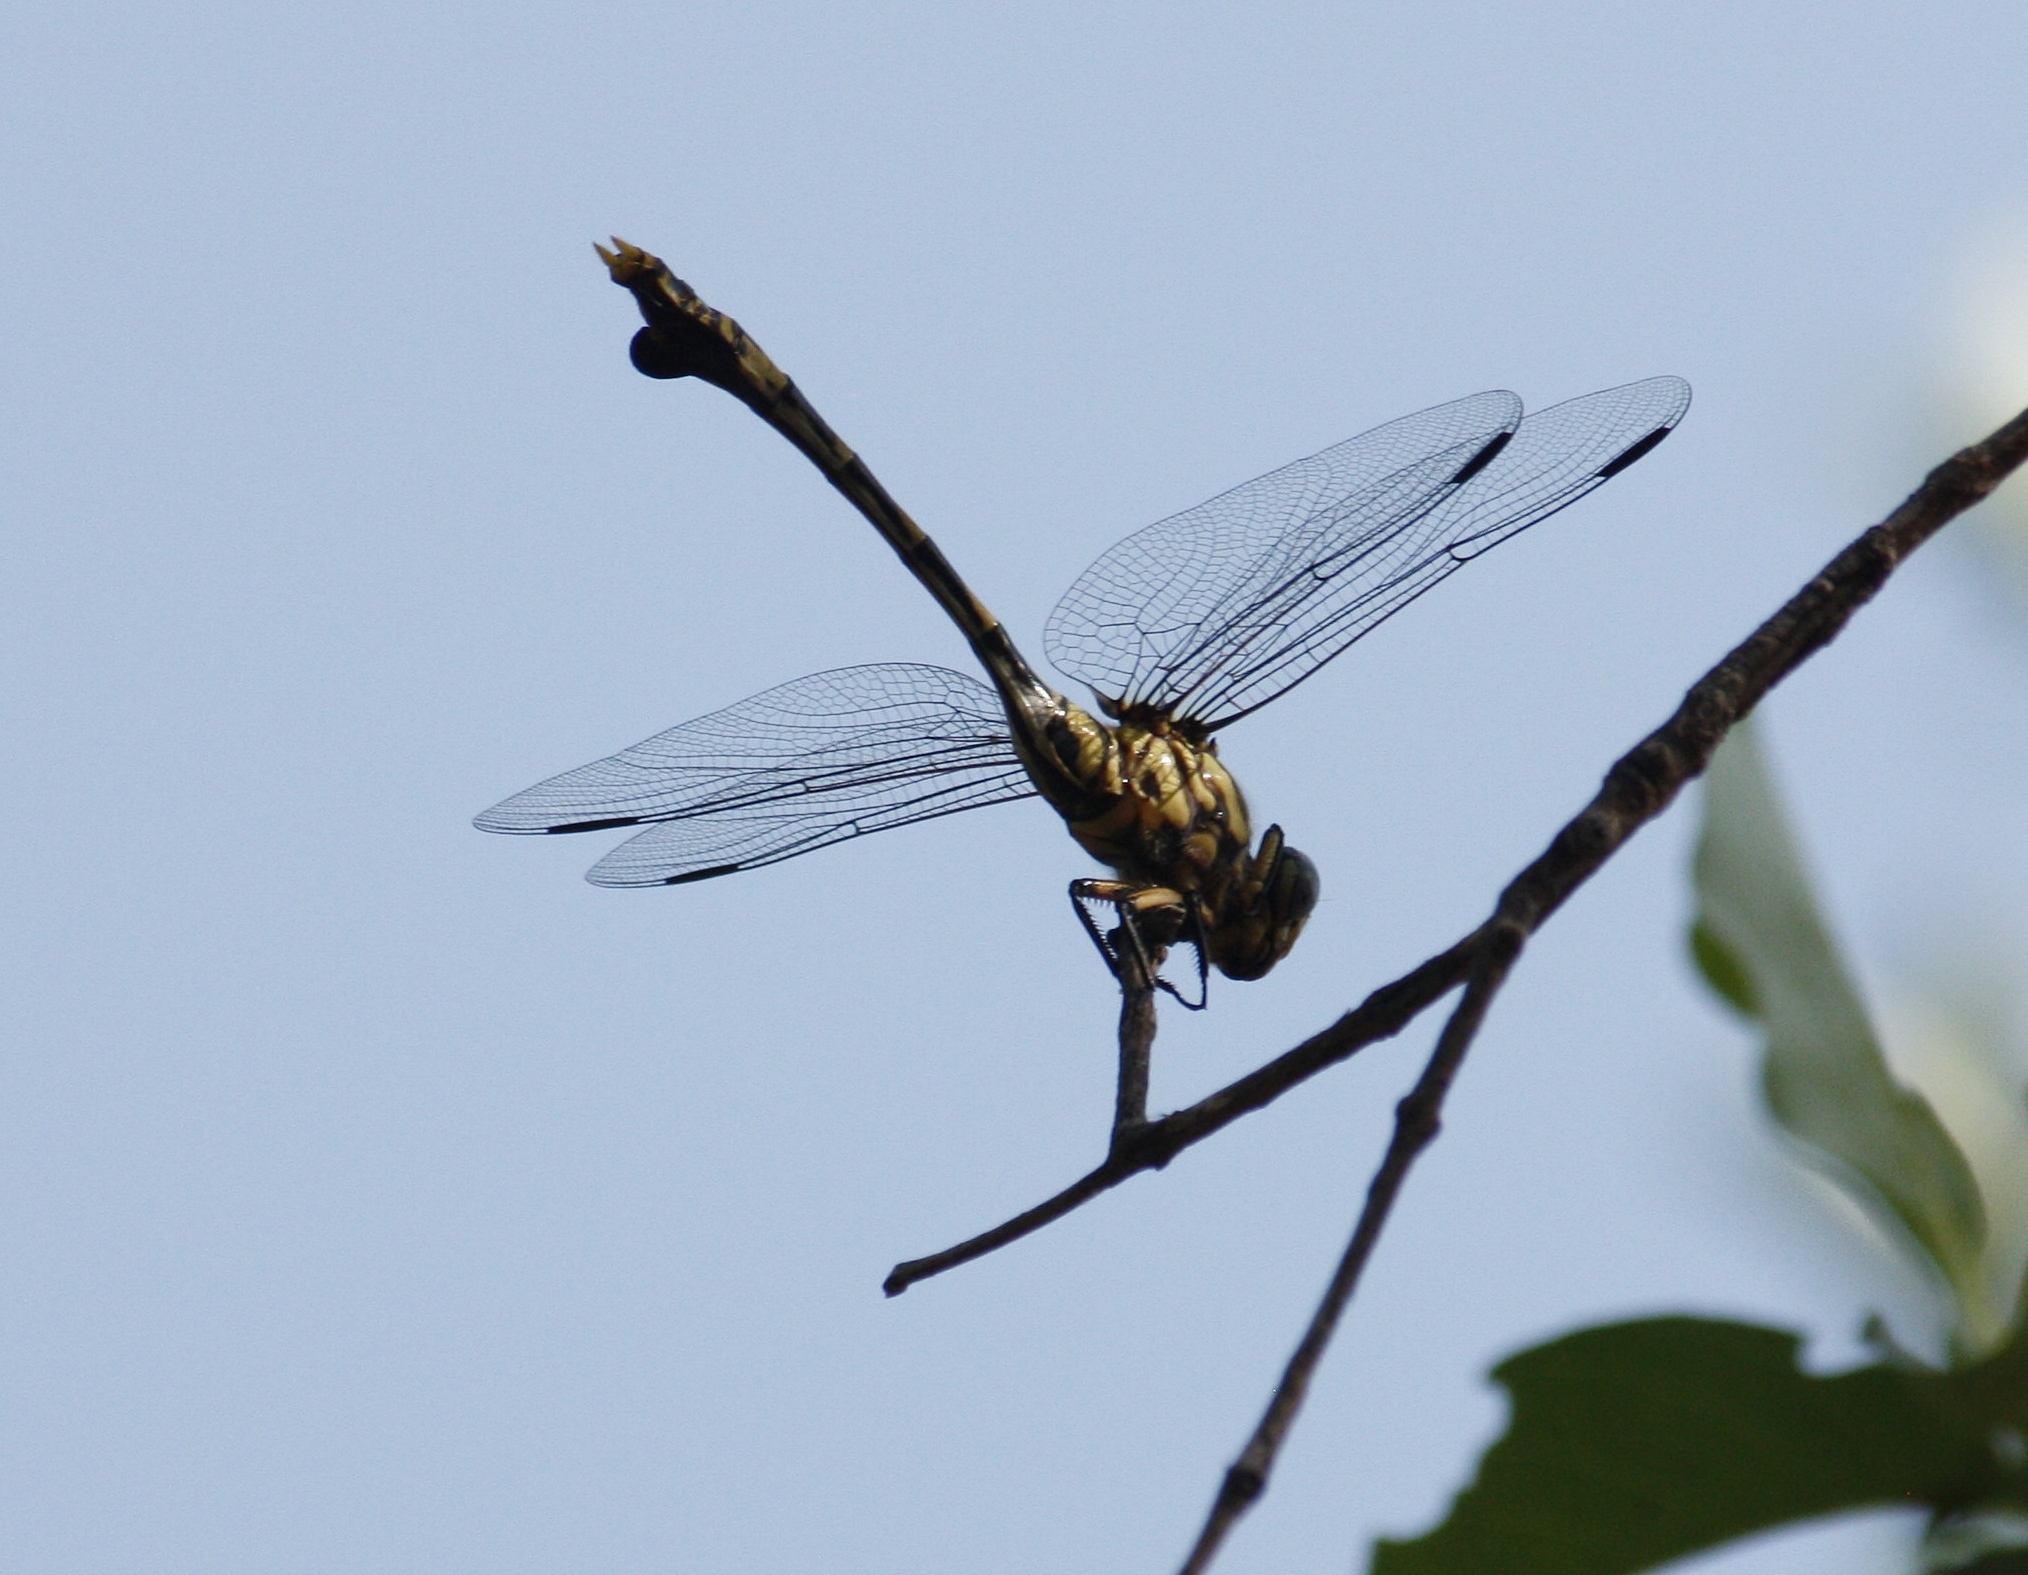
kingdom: Animalia
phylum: Arthropoda
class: Insecta
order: Odonata
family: Gomphidae
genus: Ictinogomphus
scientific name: Ictinogomphus ferox
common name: Common tiger
